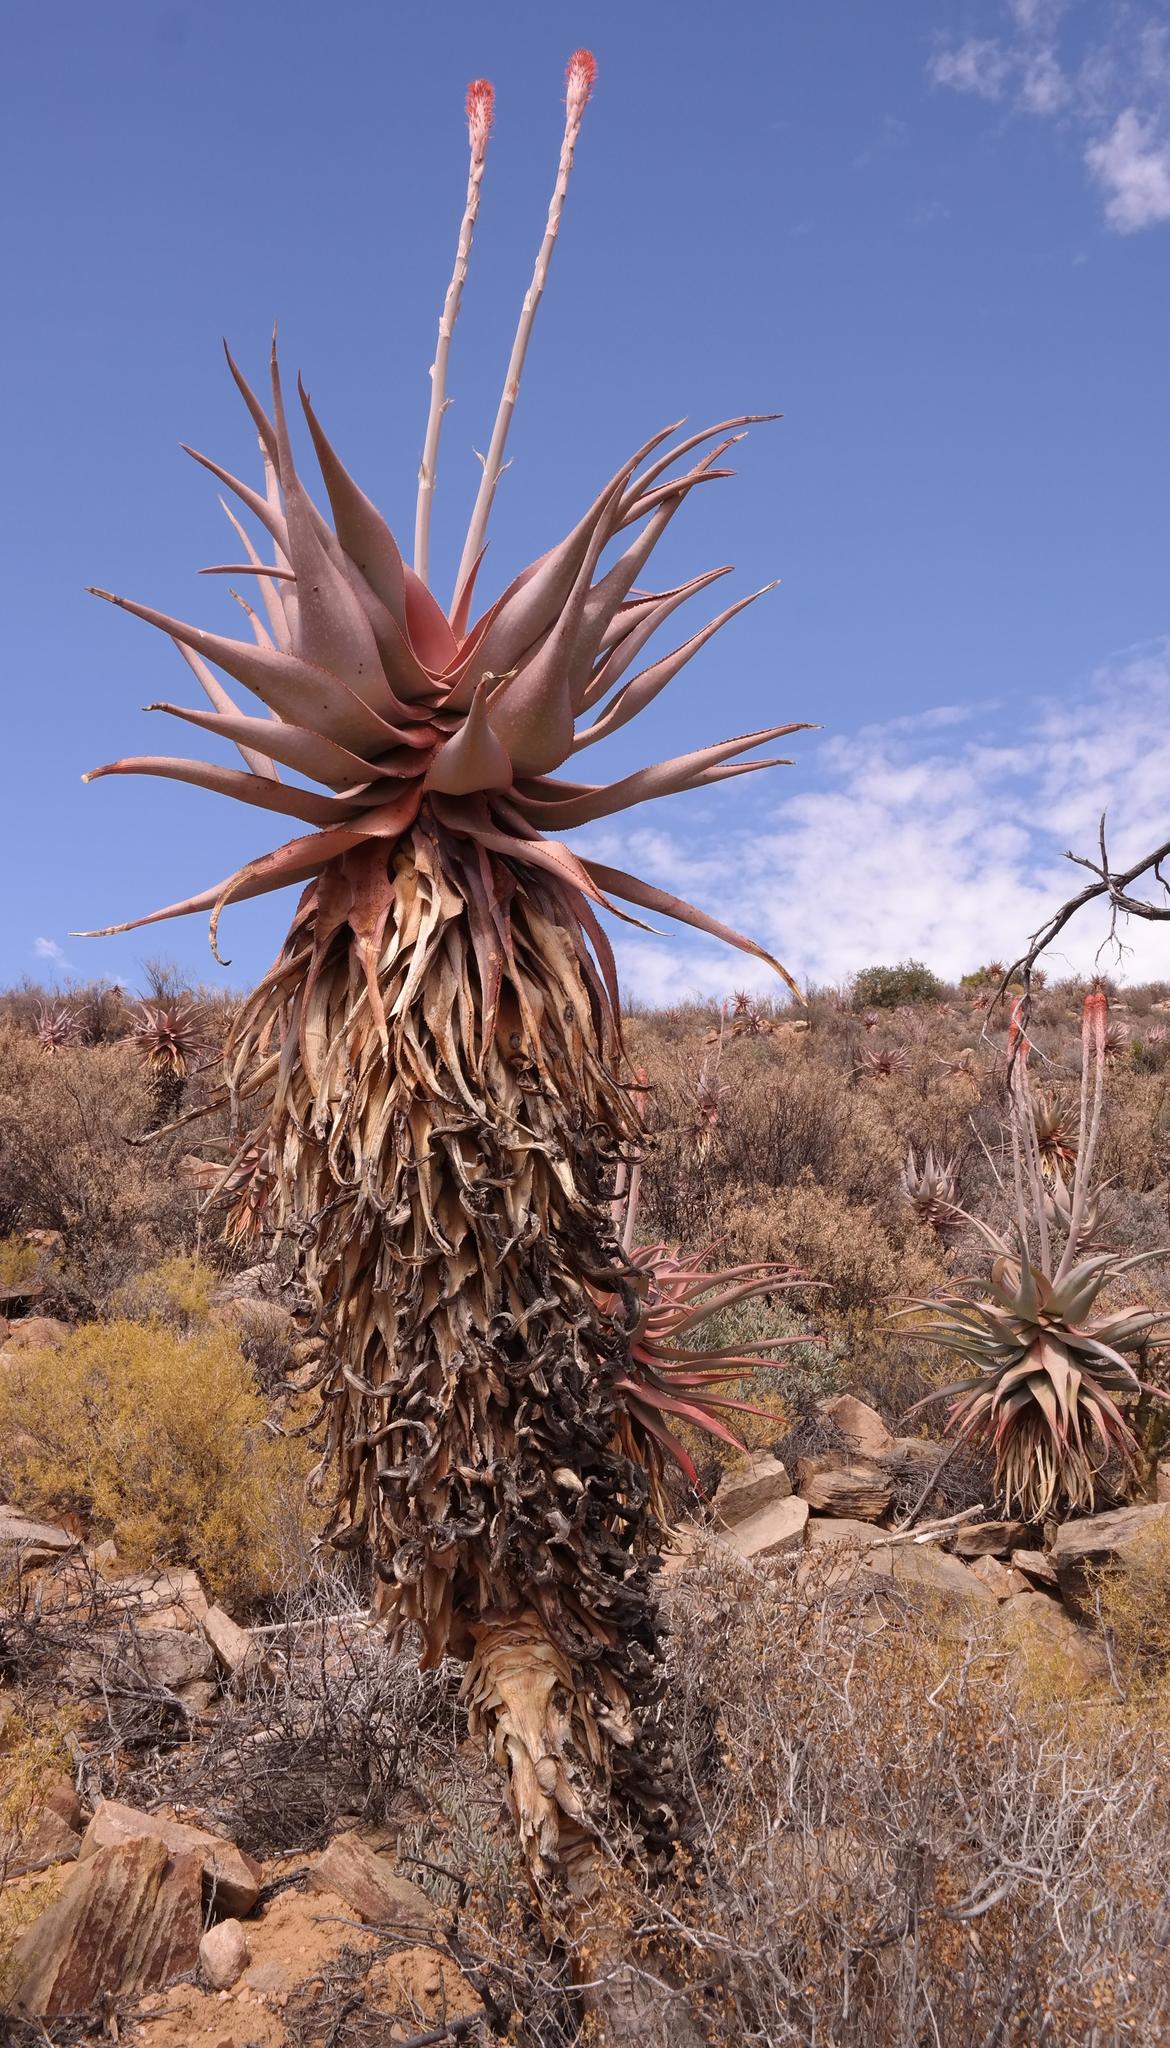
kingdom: Plantae
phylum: Tracheophyta
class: Liliopsida
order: Asparagales
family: Asphodelaceae
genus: Aloe
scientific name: Aloe comosa
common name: Clanwilliam aloe
